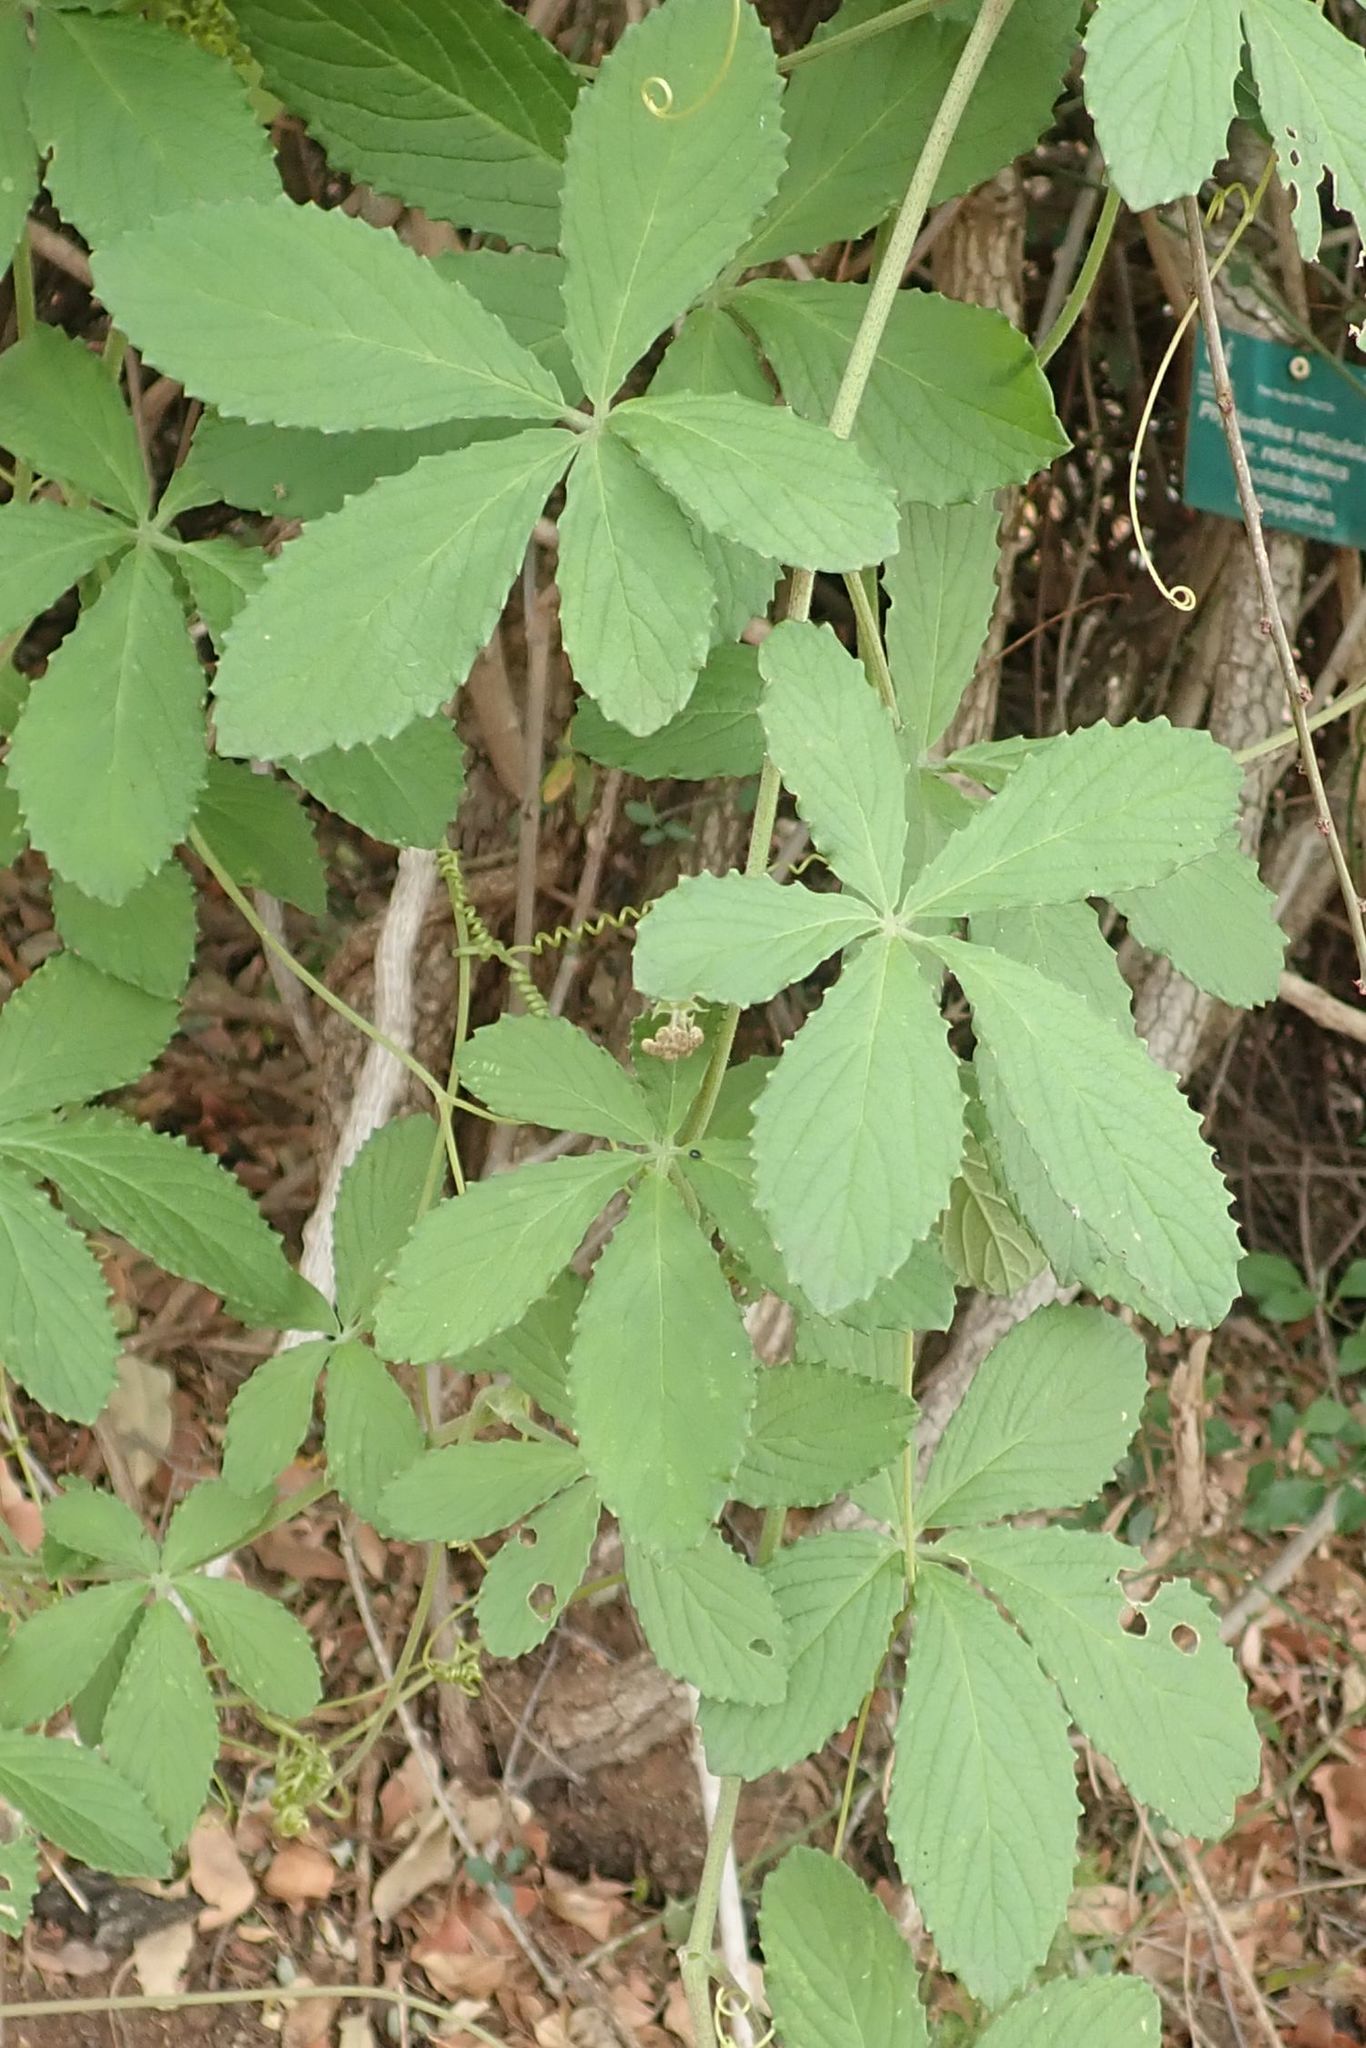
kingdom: Plantae
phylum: Tracheophyta
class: Magnoliopsida
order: Vitales
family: Vitaceae
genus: Cyphostemma
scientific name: Cyphostemma cirrhosum
